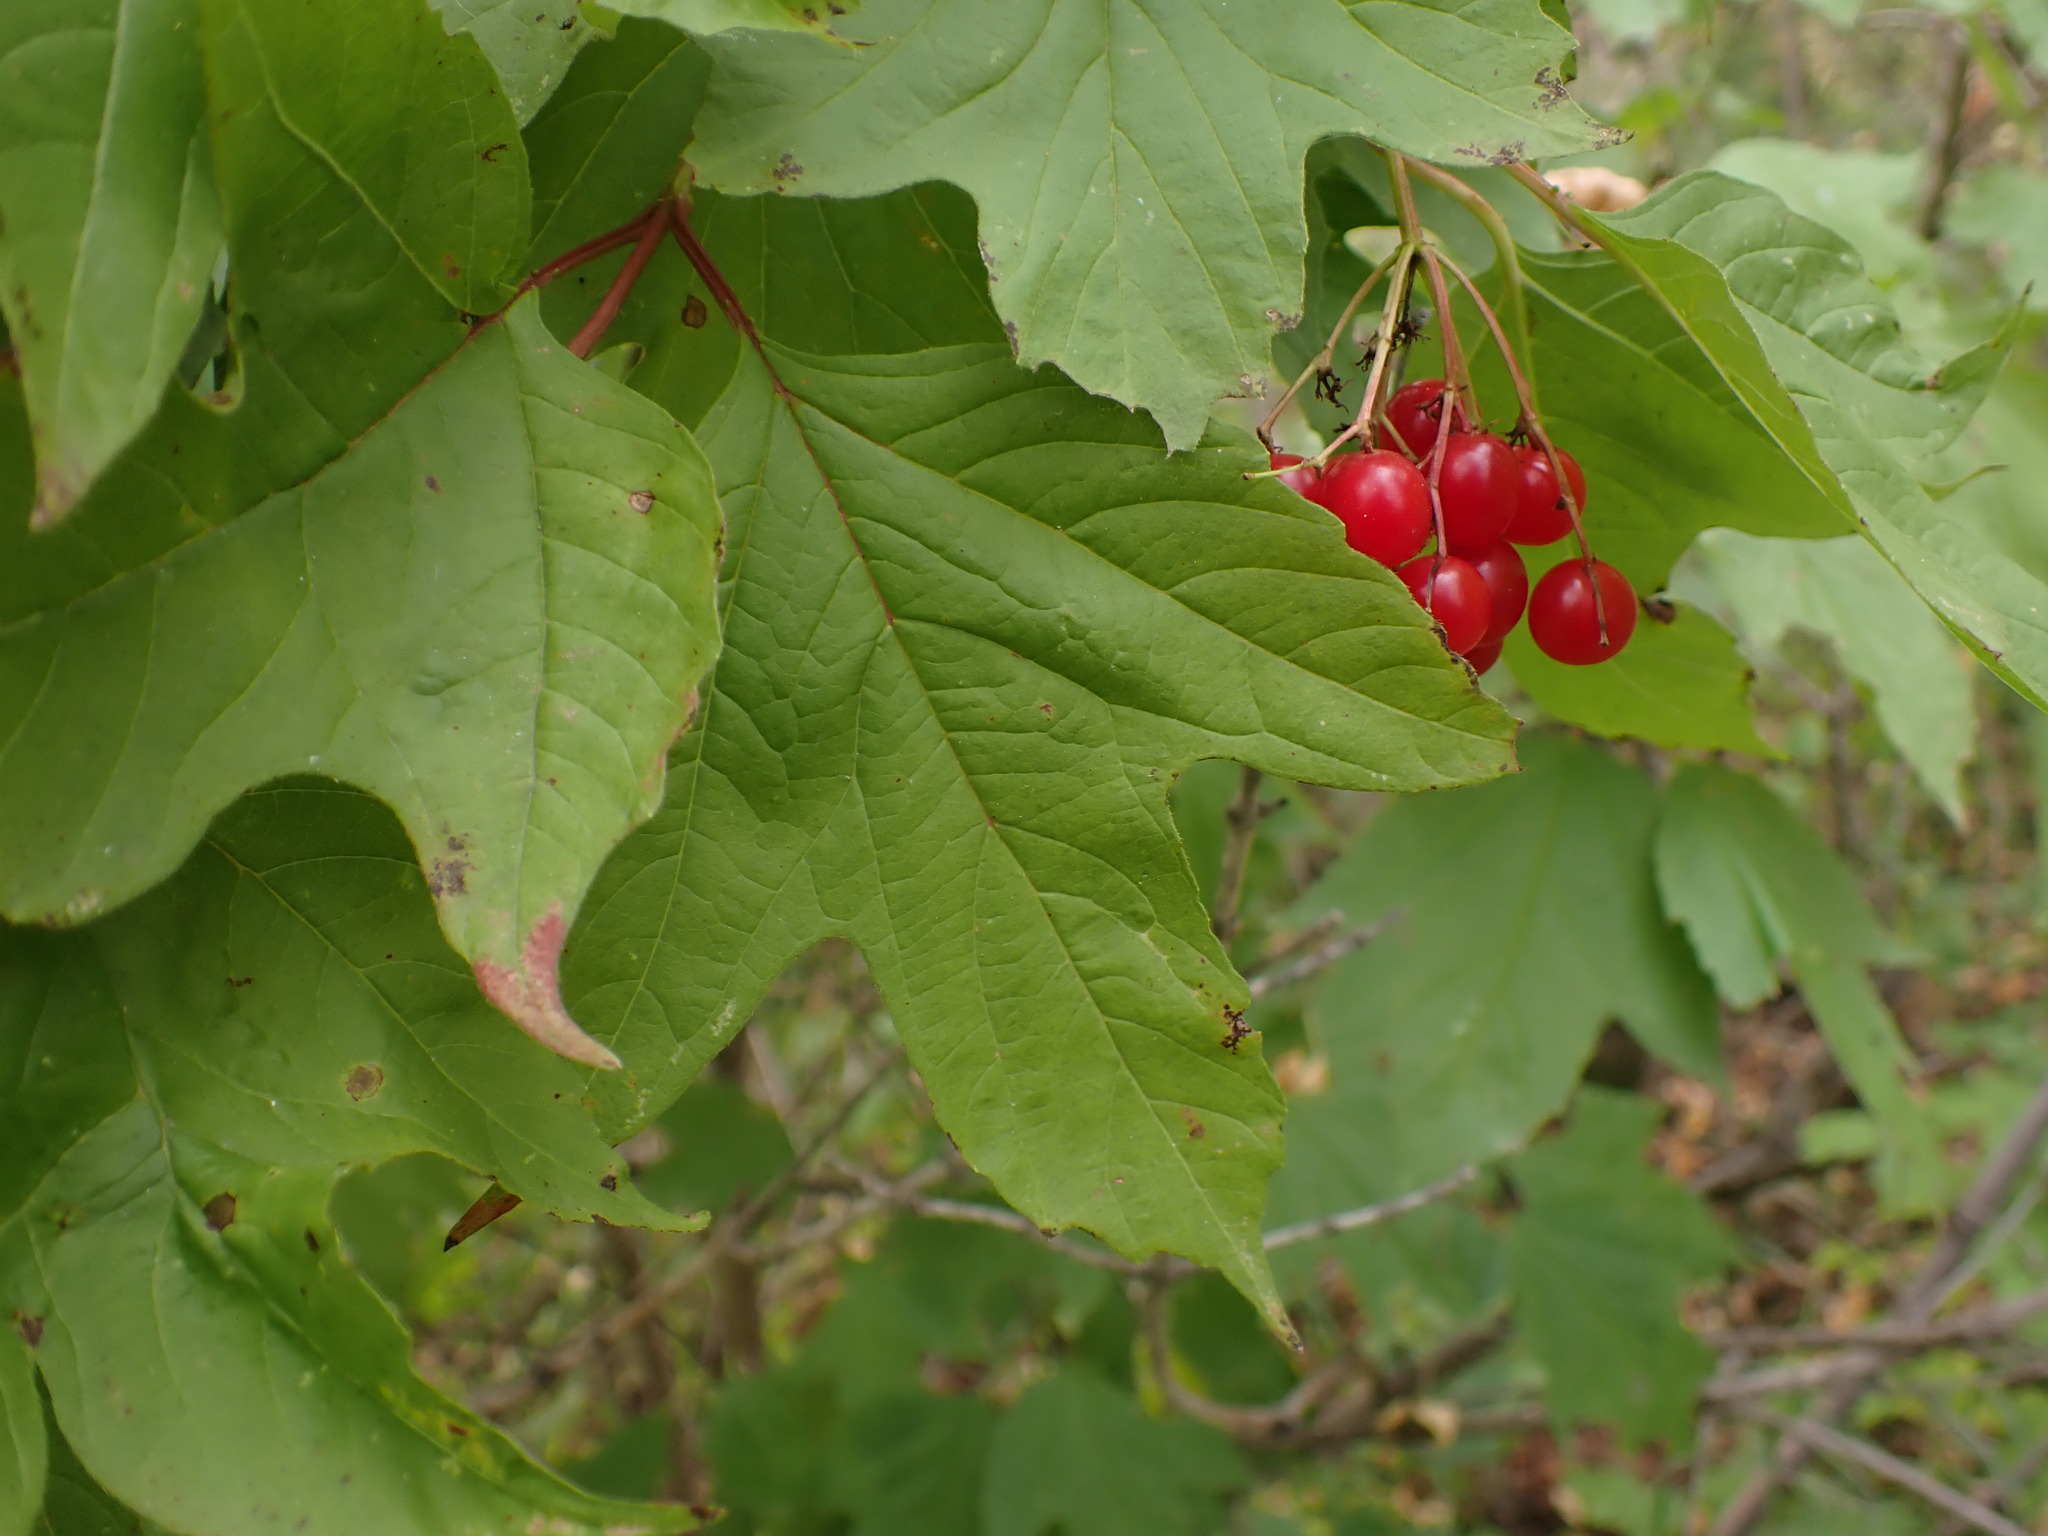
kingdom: Plantae
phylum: Tracheophyta
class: Magnoliopsida
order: Dipsacales
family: Viburnaceae
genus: Viburnum
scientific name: Viburnum opulus
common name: Guelder-rose
